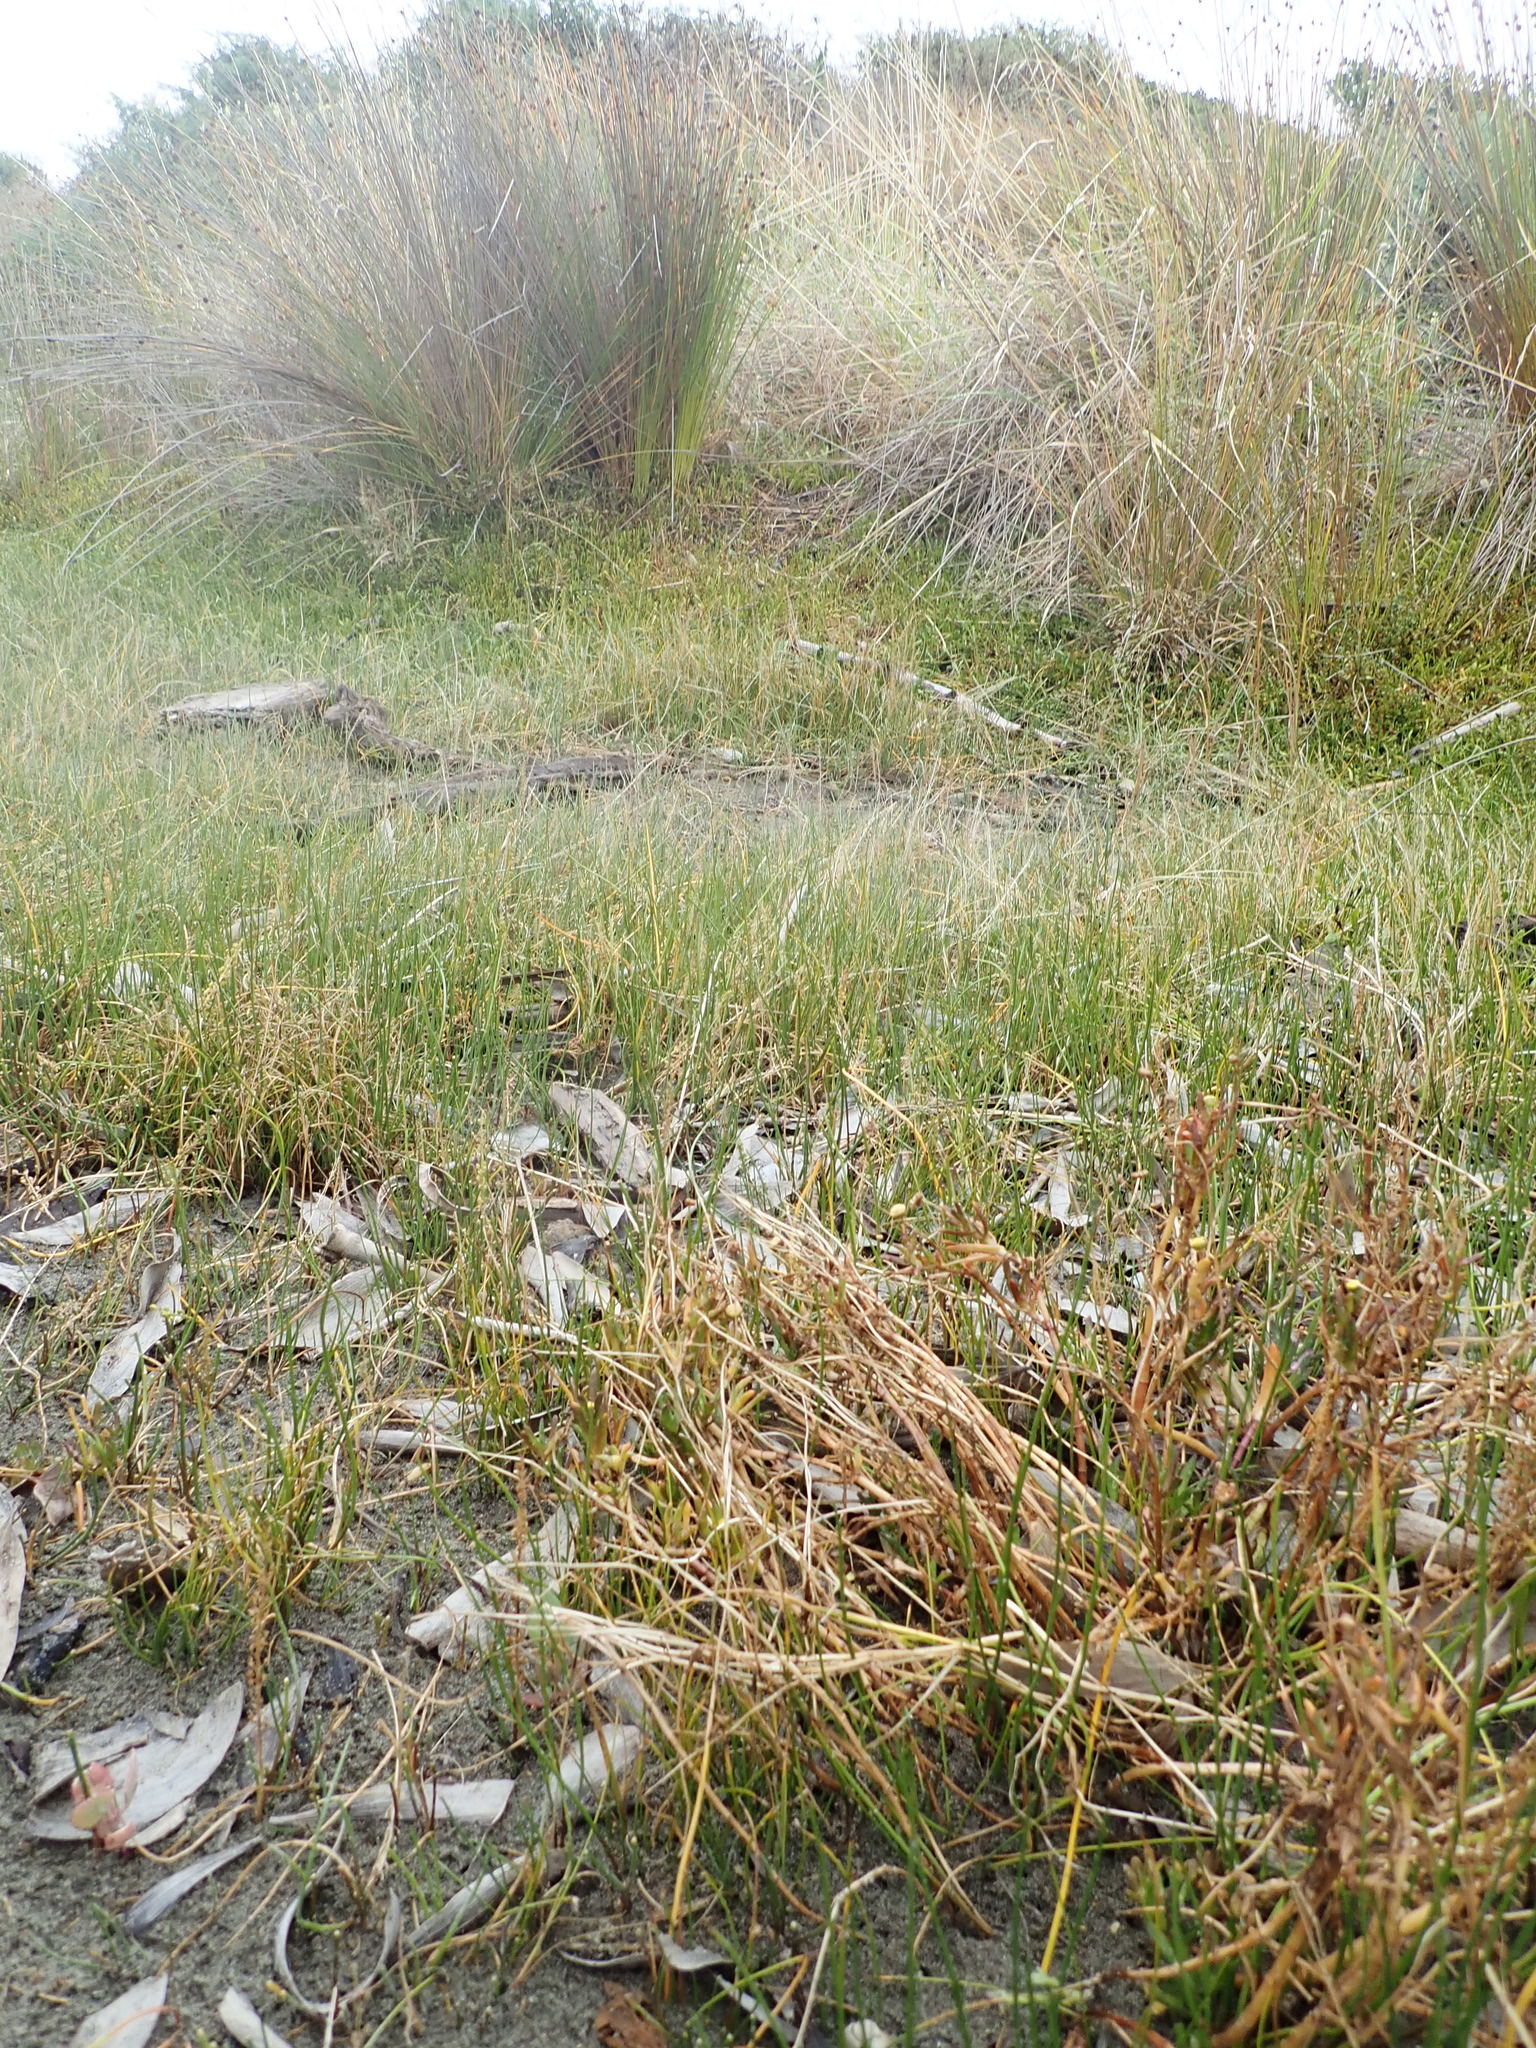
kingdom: Plantae
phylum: Tracheophyta
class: Magnoliopsida
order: Asterales
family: Asteraceae
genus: Cotula
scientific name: Cotula coronopifolia
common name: Buttonweed
